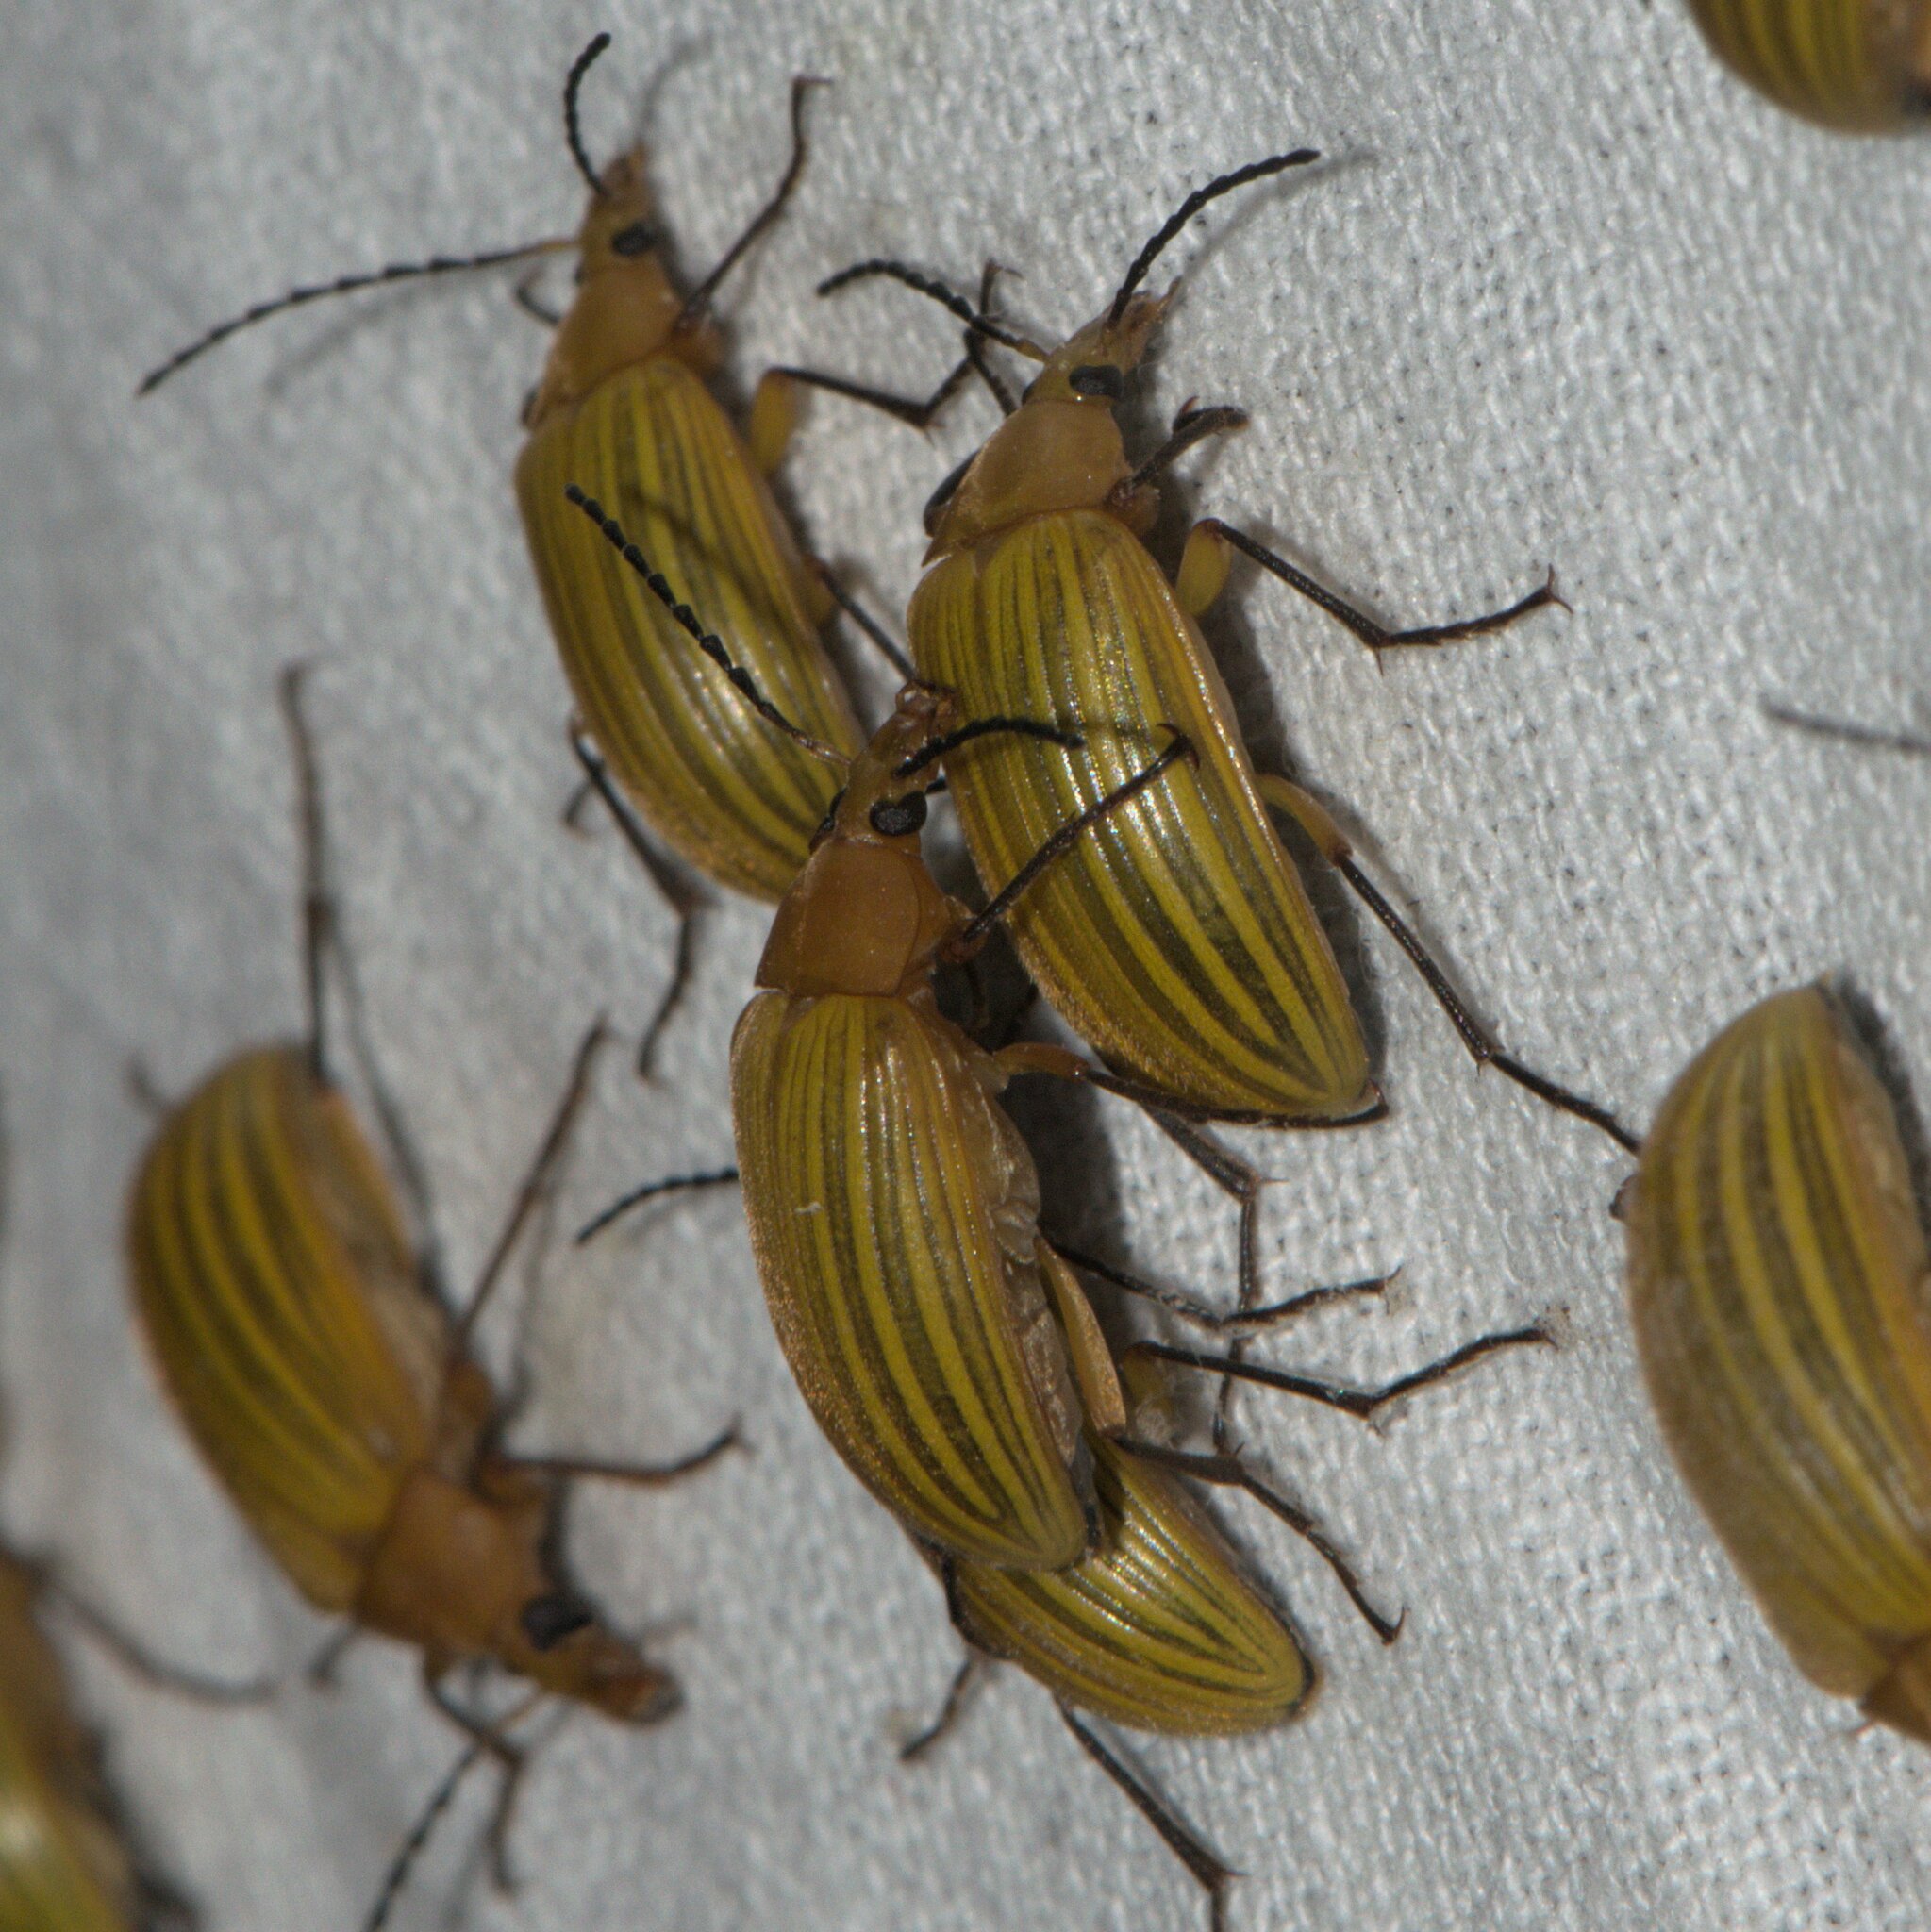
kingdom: Animalia
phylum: Arthropoda
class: Insecta
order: Coleoptera
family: Tenebrionidae
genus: Cistelomorpha
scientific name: Cistelomorpha
